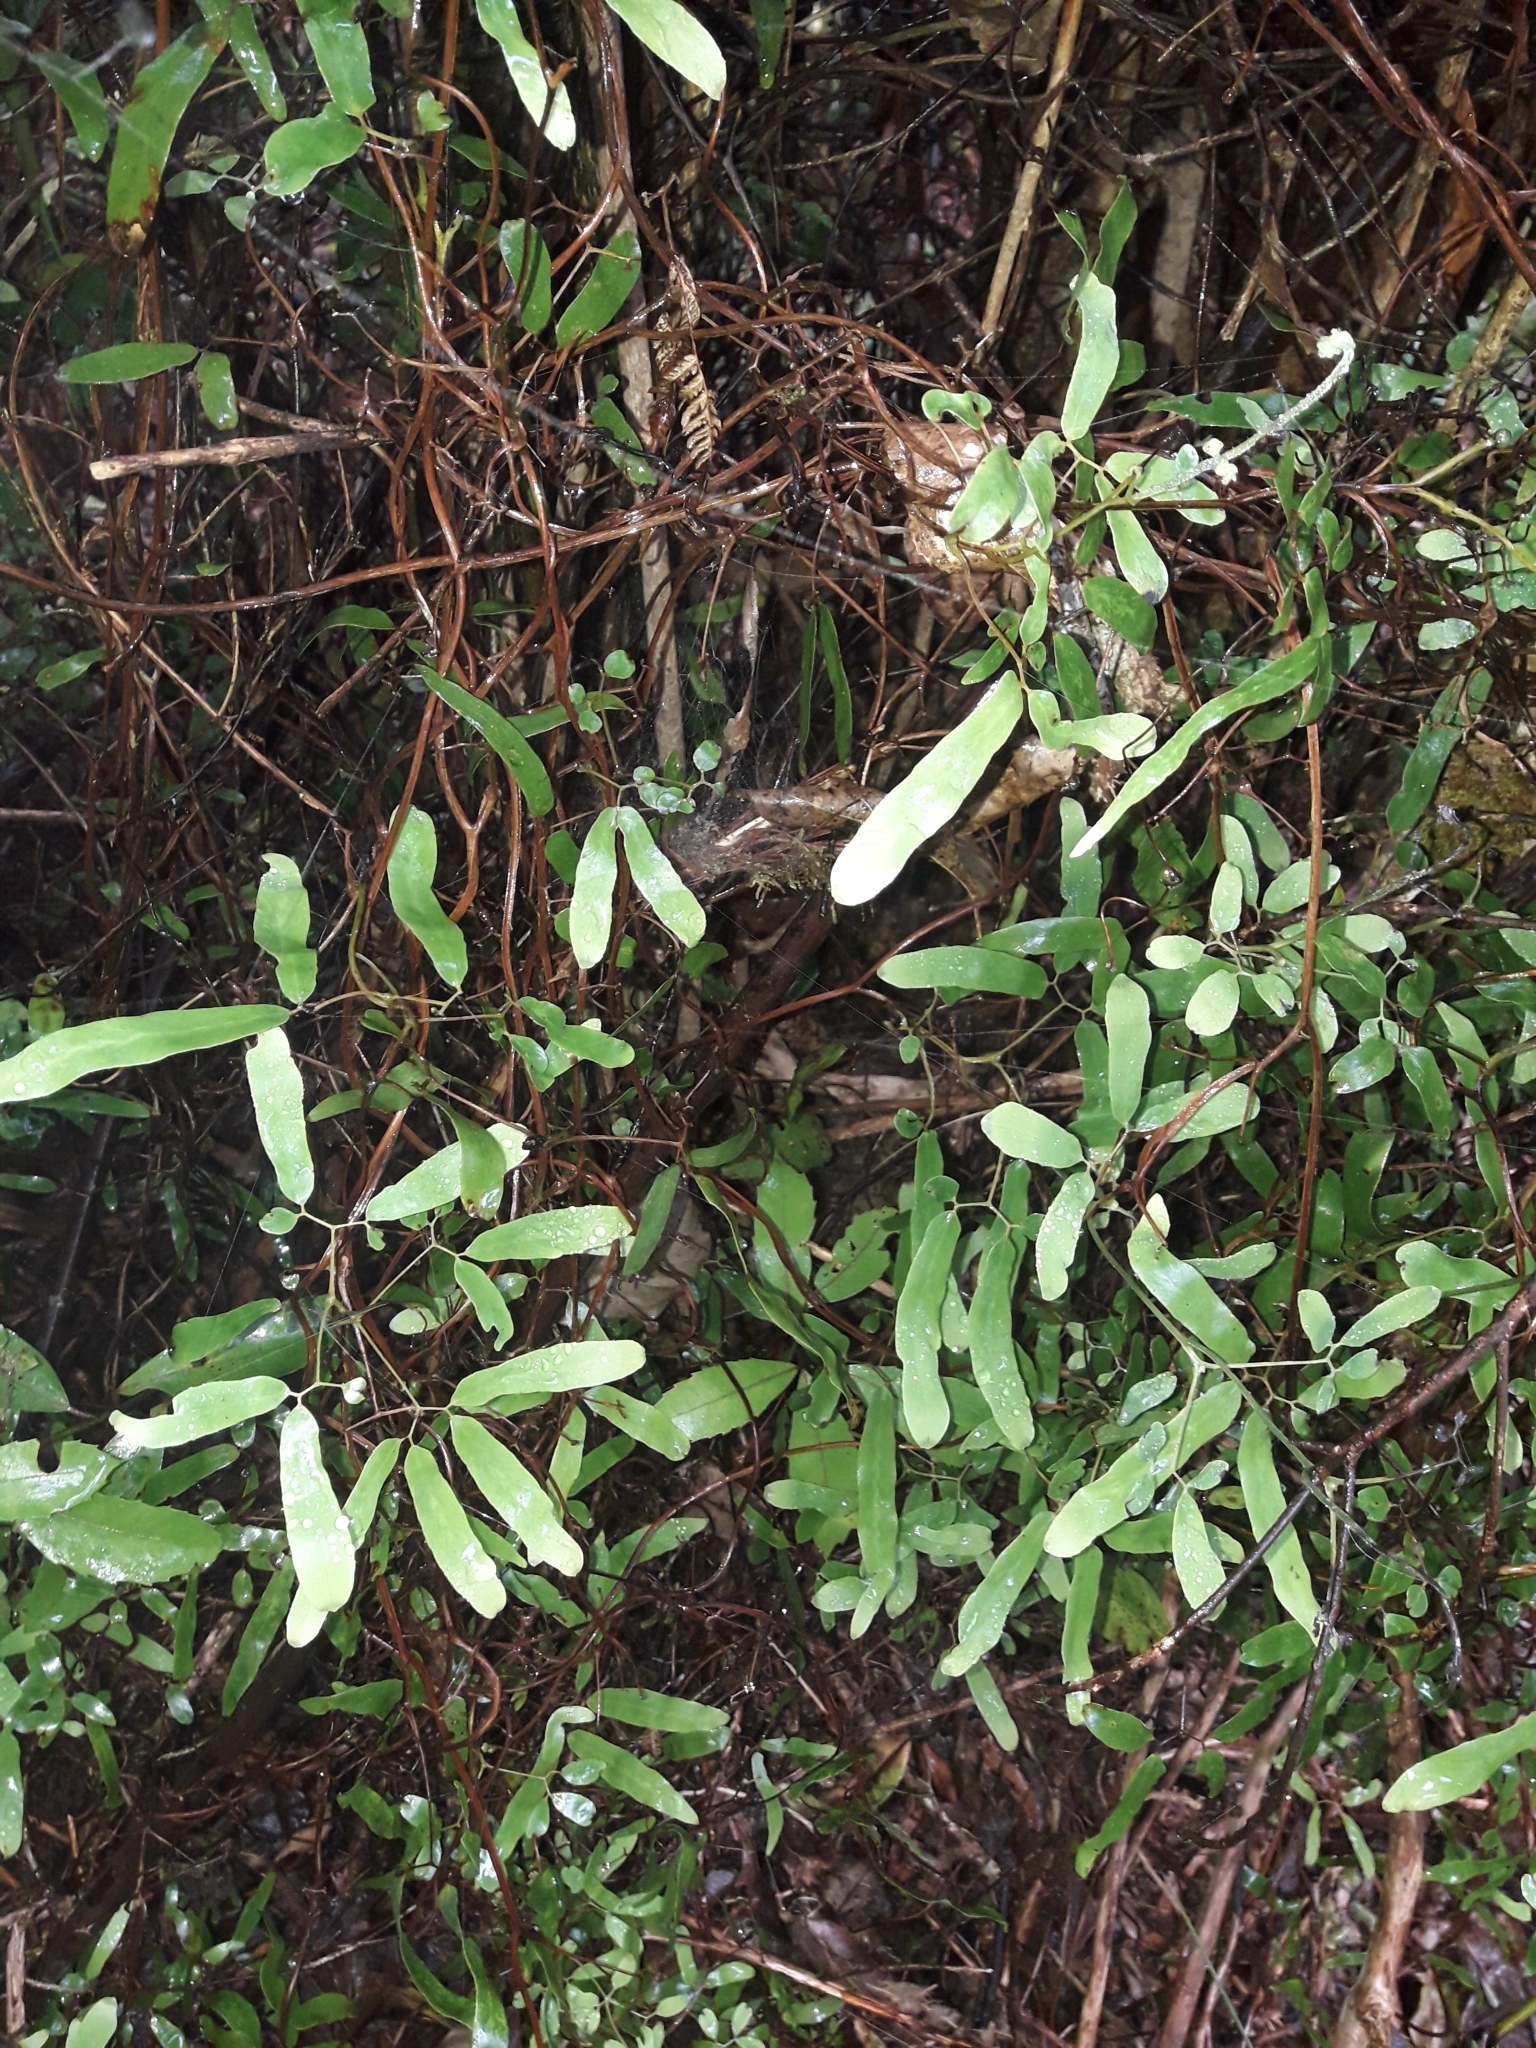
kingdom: Plantae
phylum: Tracheophyta
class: Polypodiopsida
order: Schizaeales
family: Lygodiaceae
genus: Lygodium
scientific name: Lygodium articulatum
